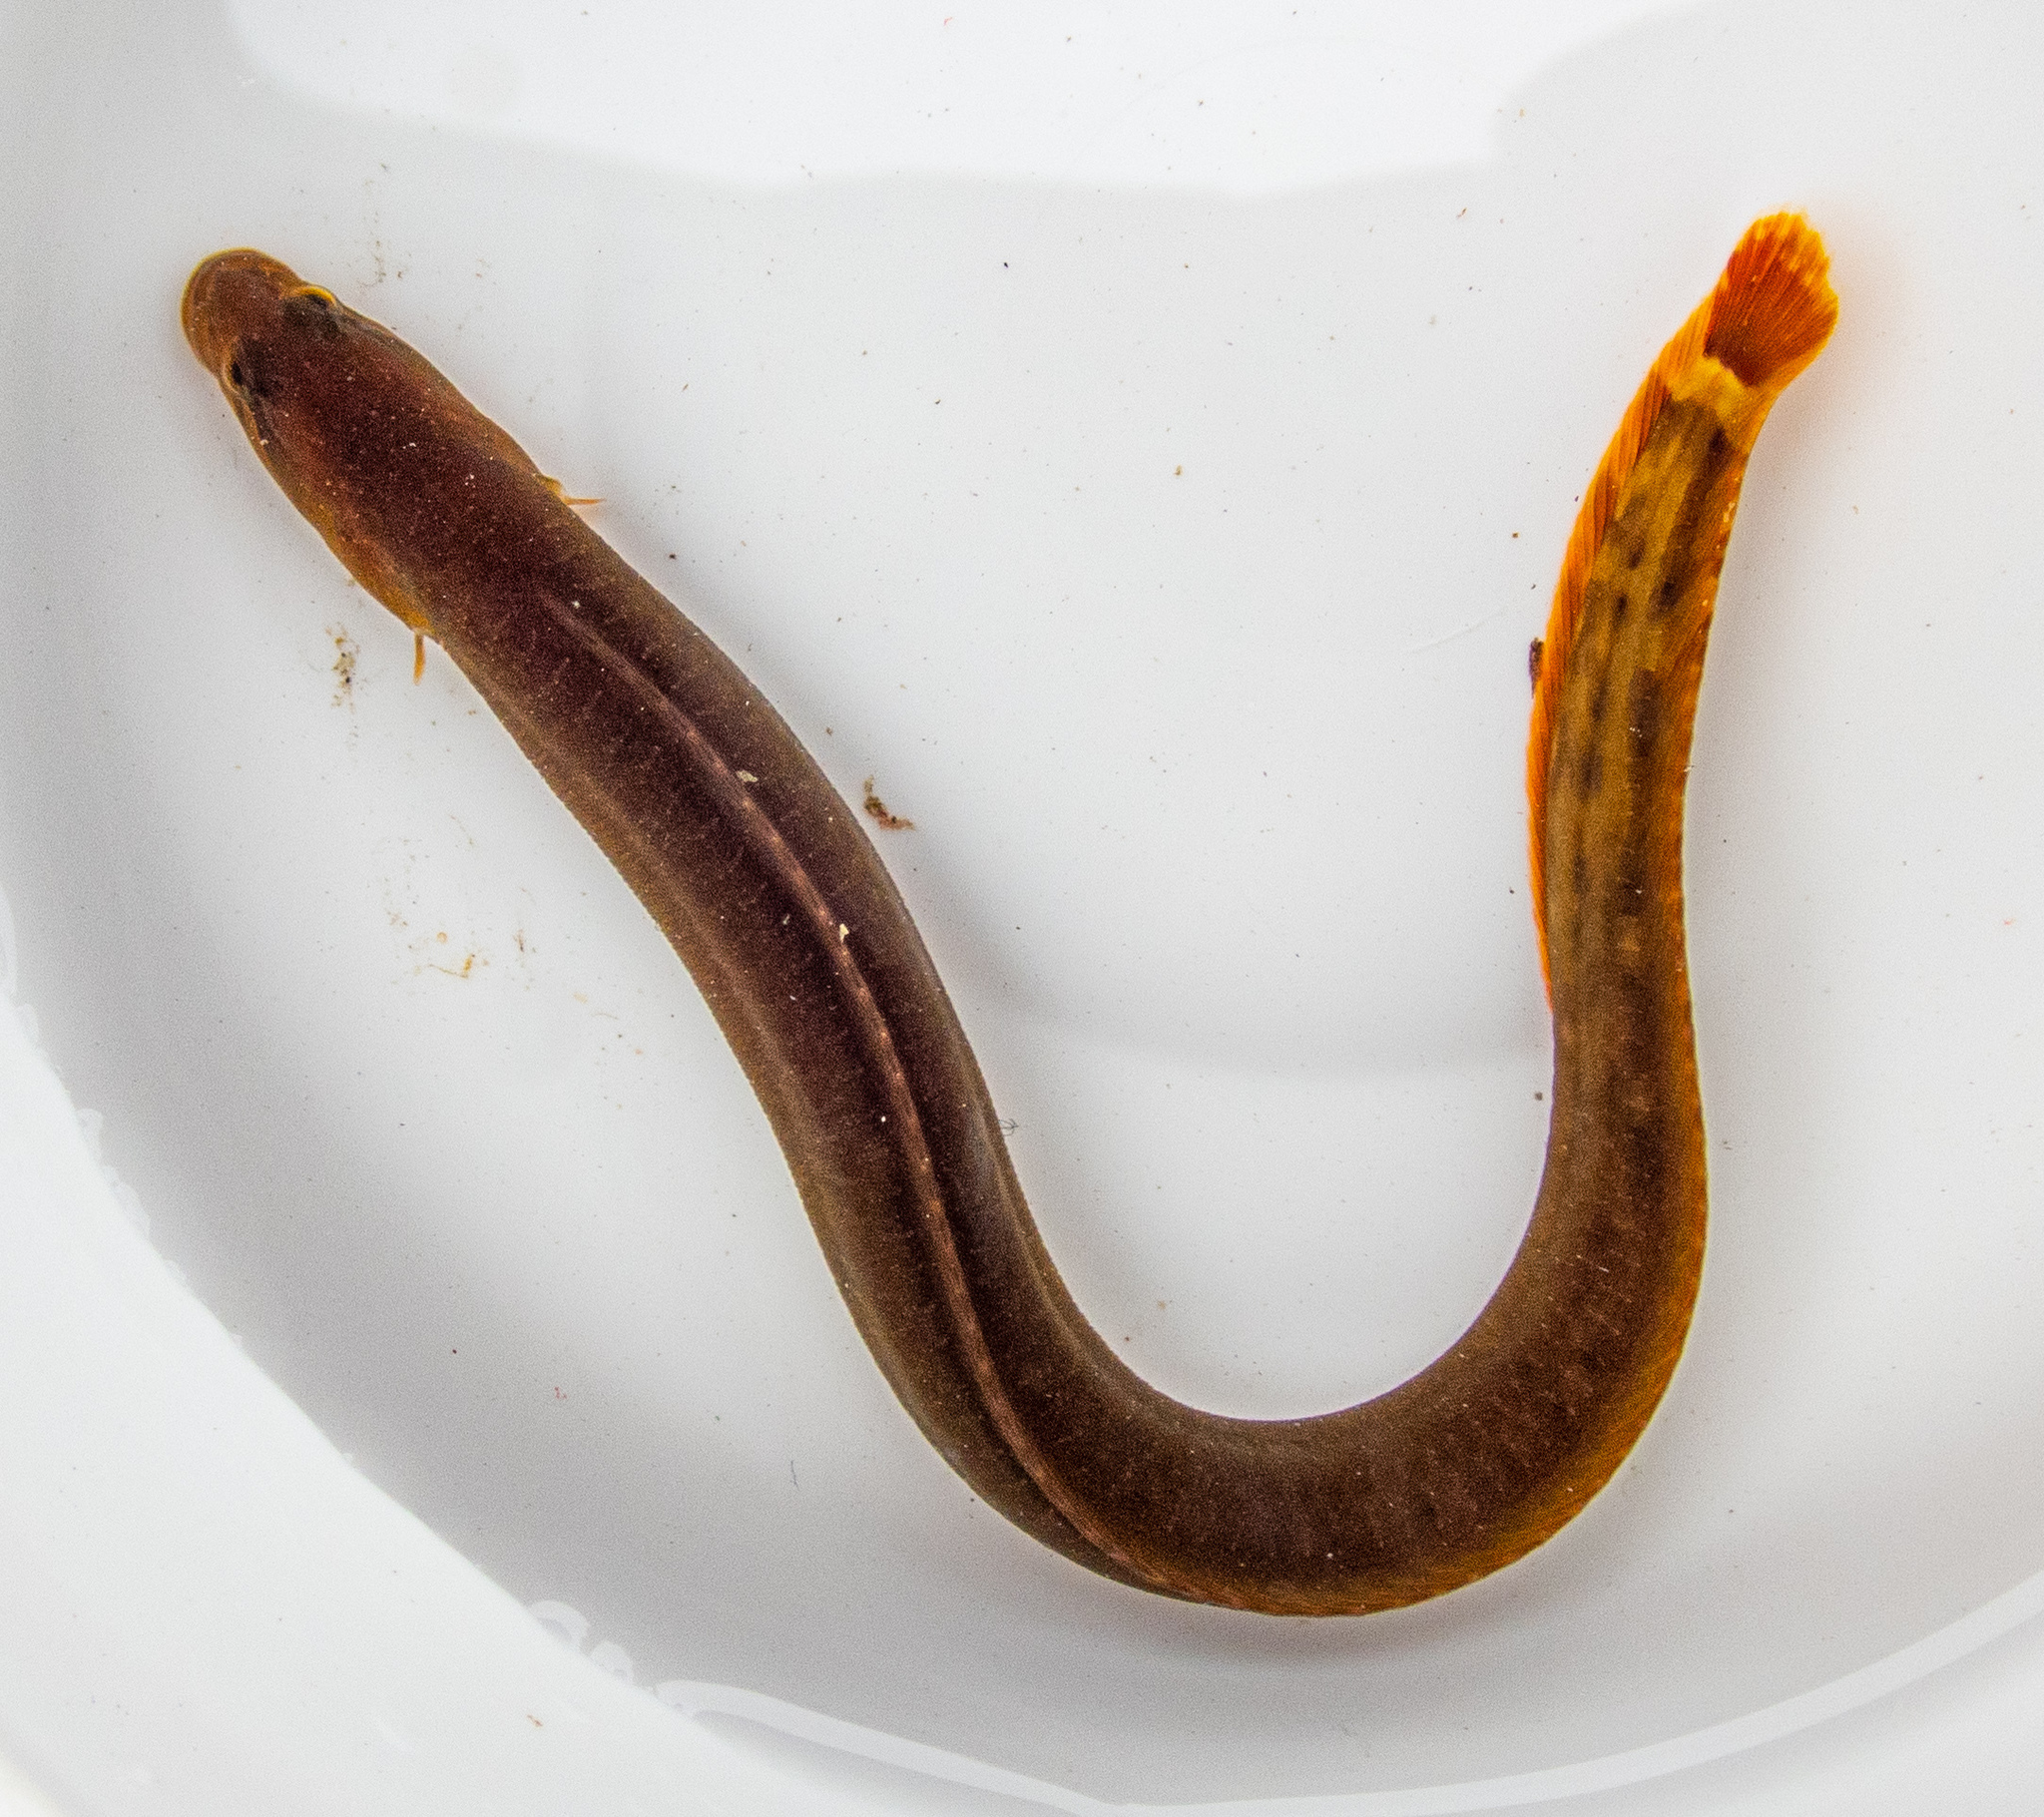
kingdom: Animalia
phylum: Chordata
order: Perciformes
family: Stichaeidae
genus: Xiphister
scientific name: Xiphister atropurpureus
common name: Black prickleback
